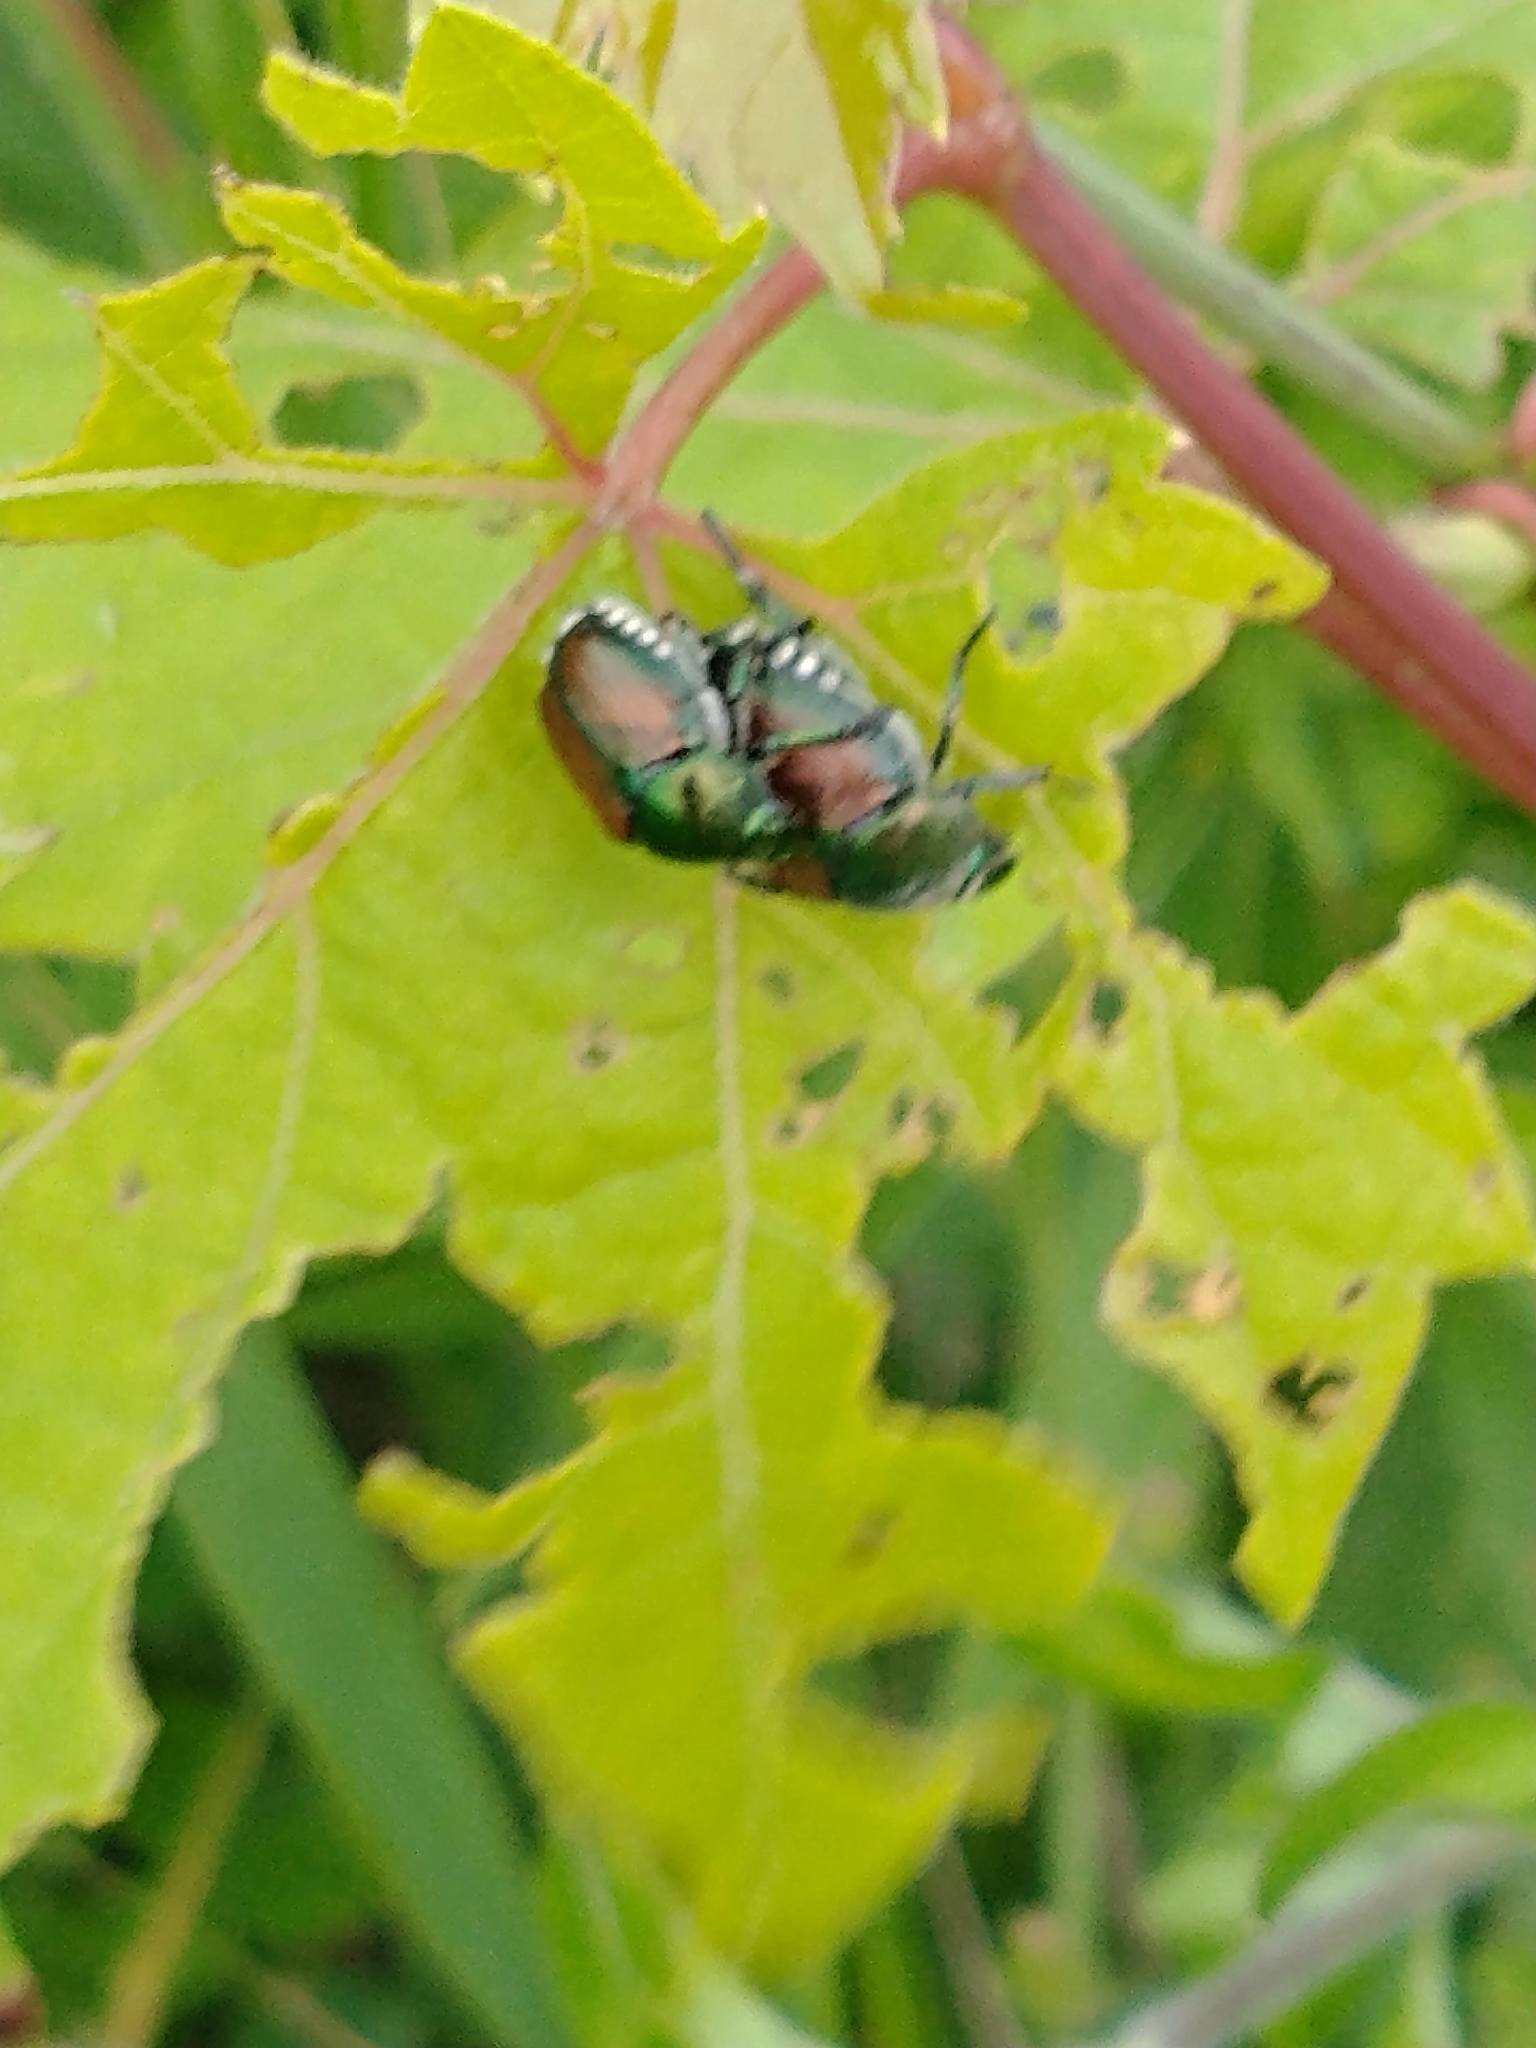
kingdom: Animalia
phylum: Arthropoda
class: Insecta
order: Coleoptera
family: Scarabaeidae
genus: Popillia
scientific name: Popillia japonica
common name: Japanese beetle
